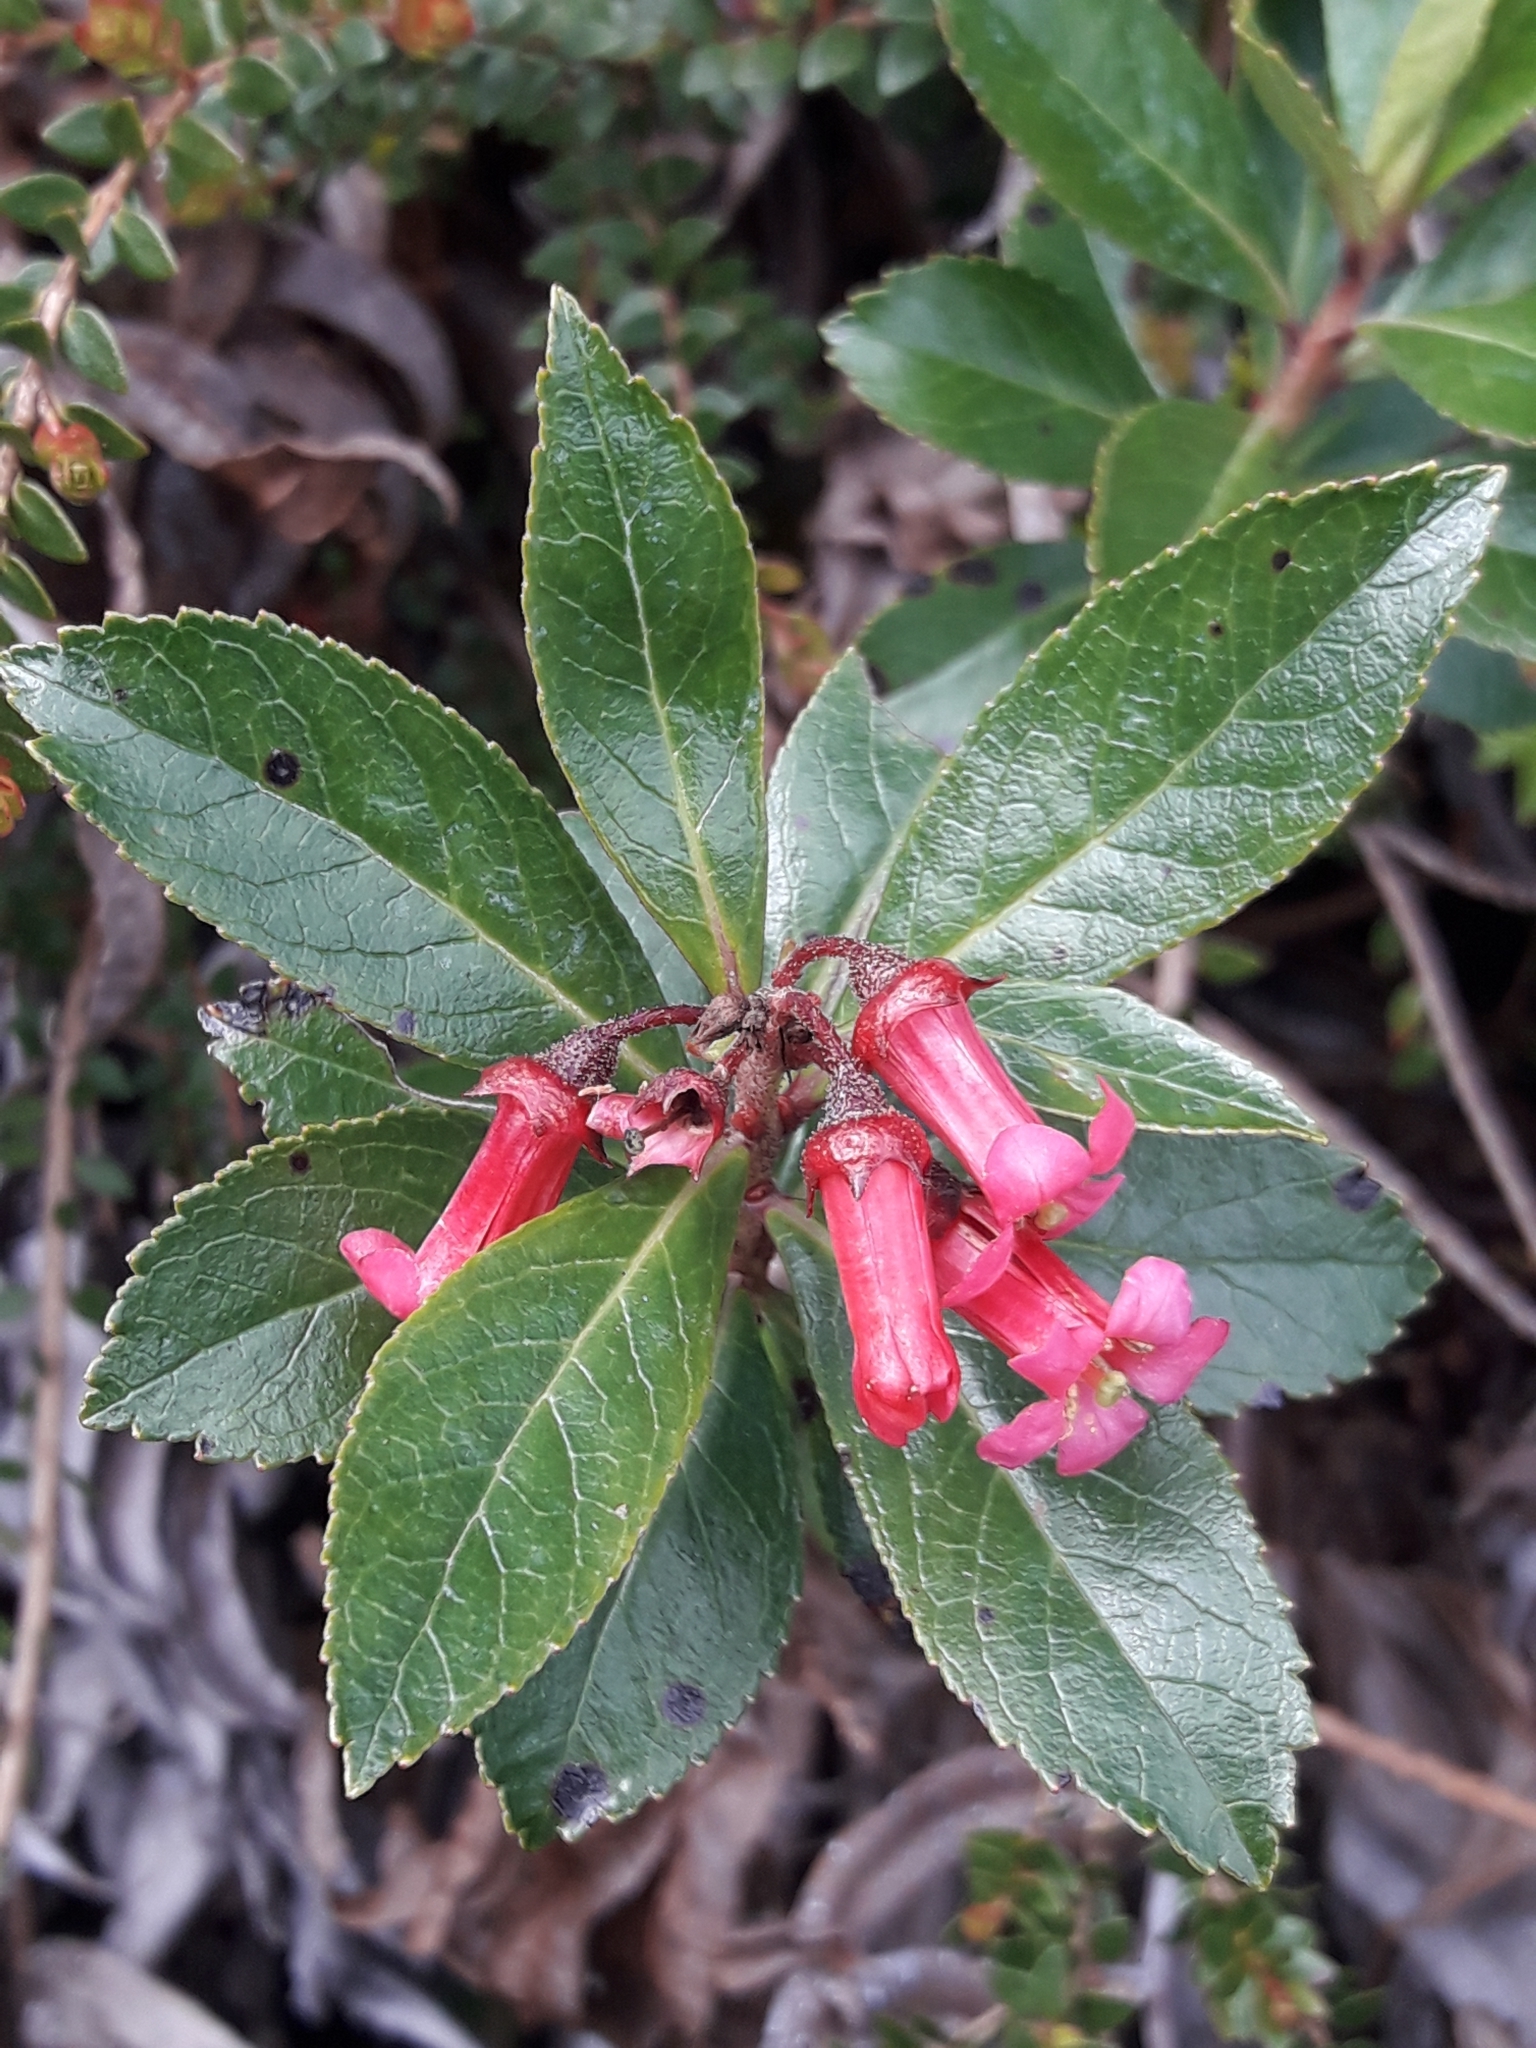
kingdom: Plantae
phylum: Tracheophyta
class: Magnoliopsida
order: Escalloniales
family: Escalloniaceae
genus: Escallonia
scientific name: Escallonia rubra
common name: Redclaws
